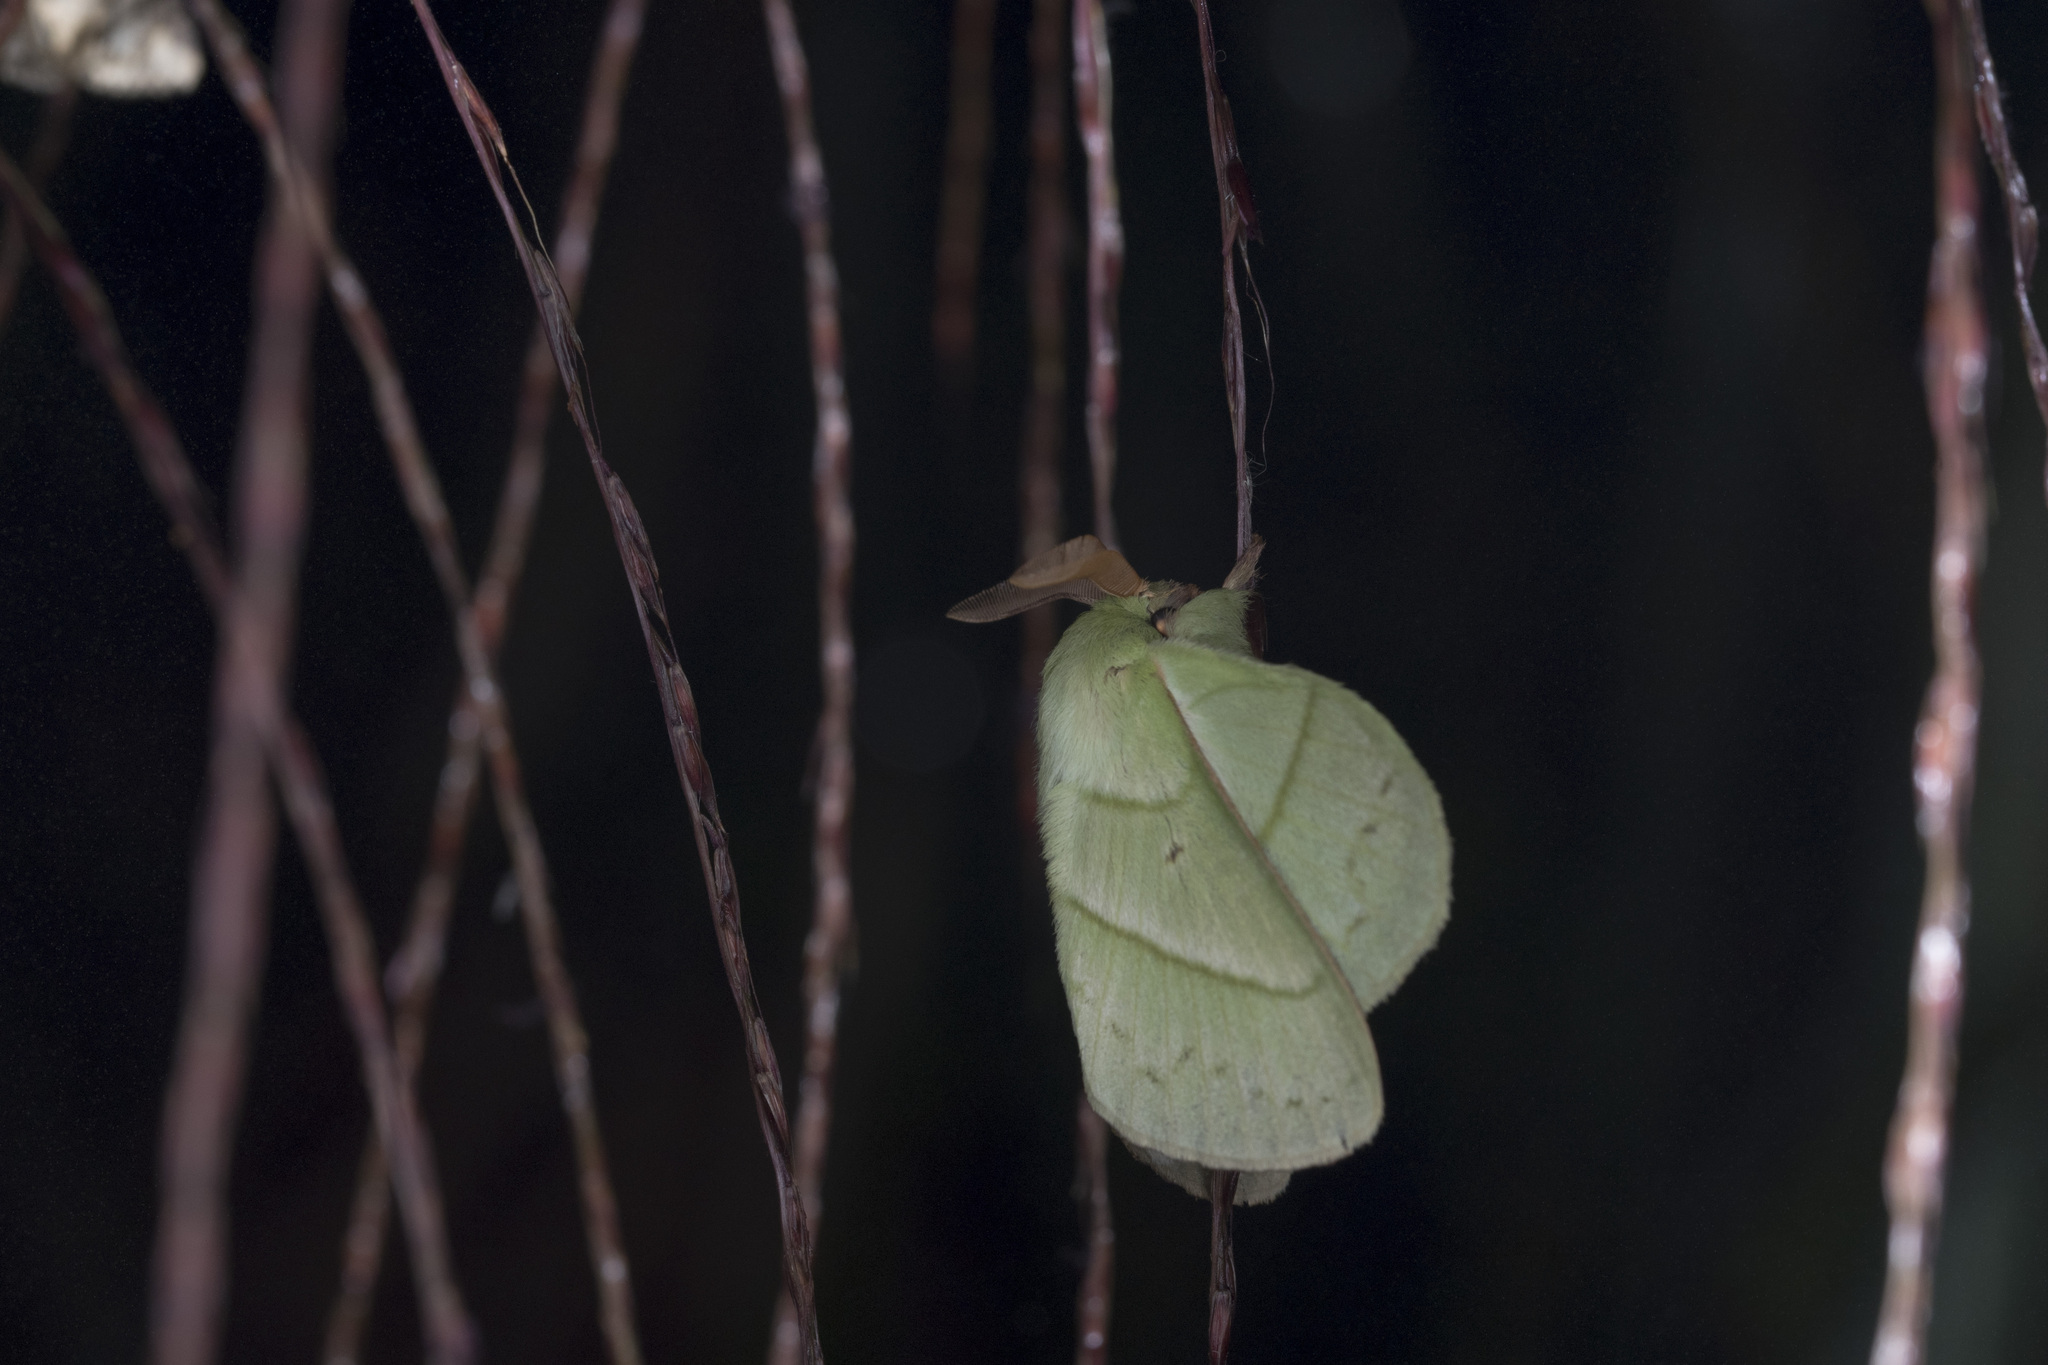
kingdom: Animalia
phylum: Arthropoda
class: Insecta
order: Lepidoptera
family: Lasiocampidae
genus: Trabala
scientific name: Trabala vishnou
